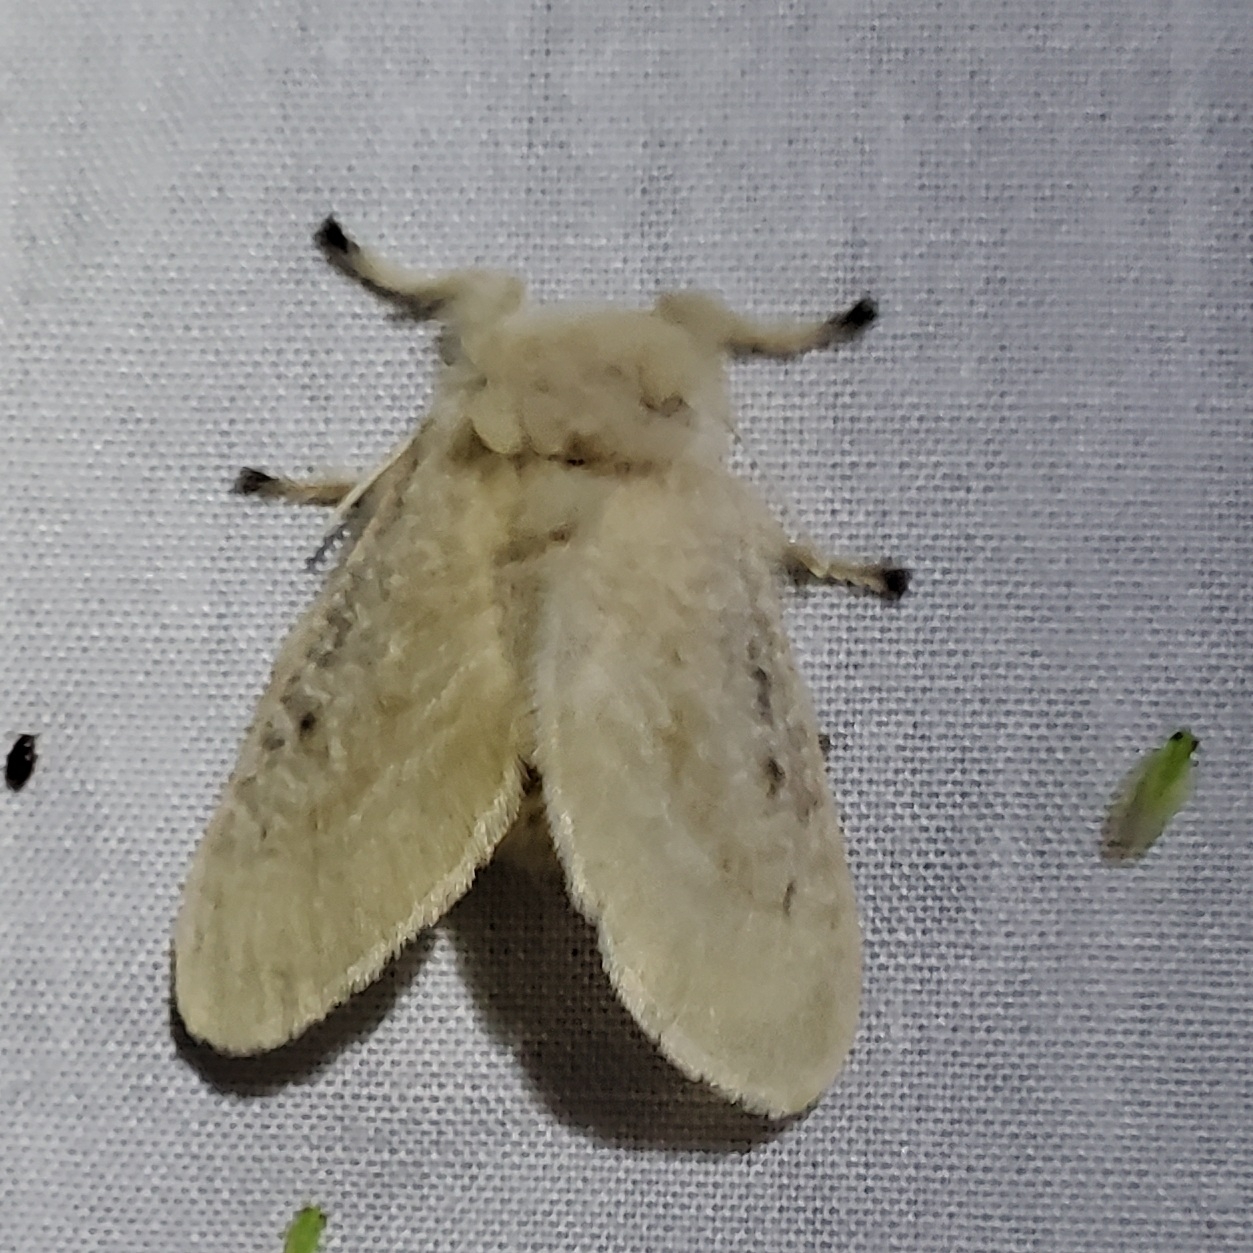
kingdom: Animalia
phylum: Arthropoda
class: Insecta
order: Lepidoptera
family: Megalopygidae
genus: Megalopyge
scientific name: Megalopyge crispata
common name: Black-waved flannel moth
